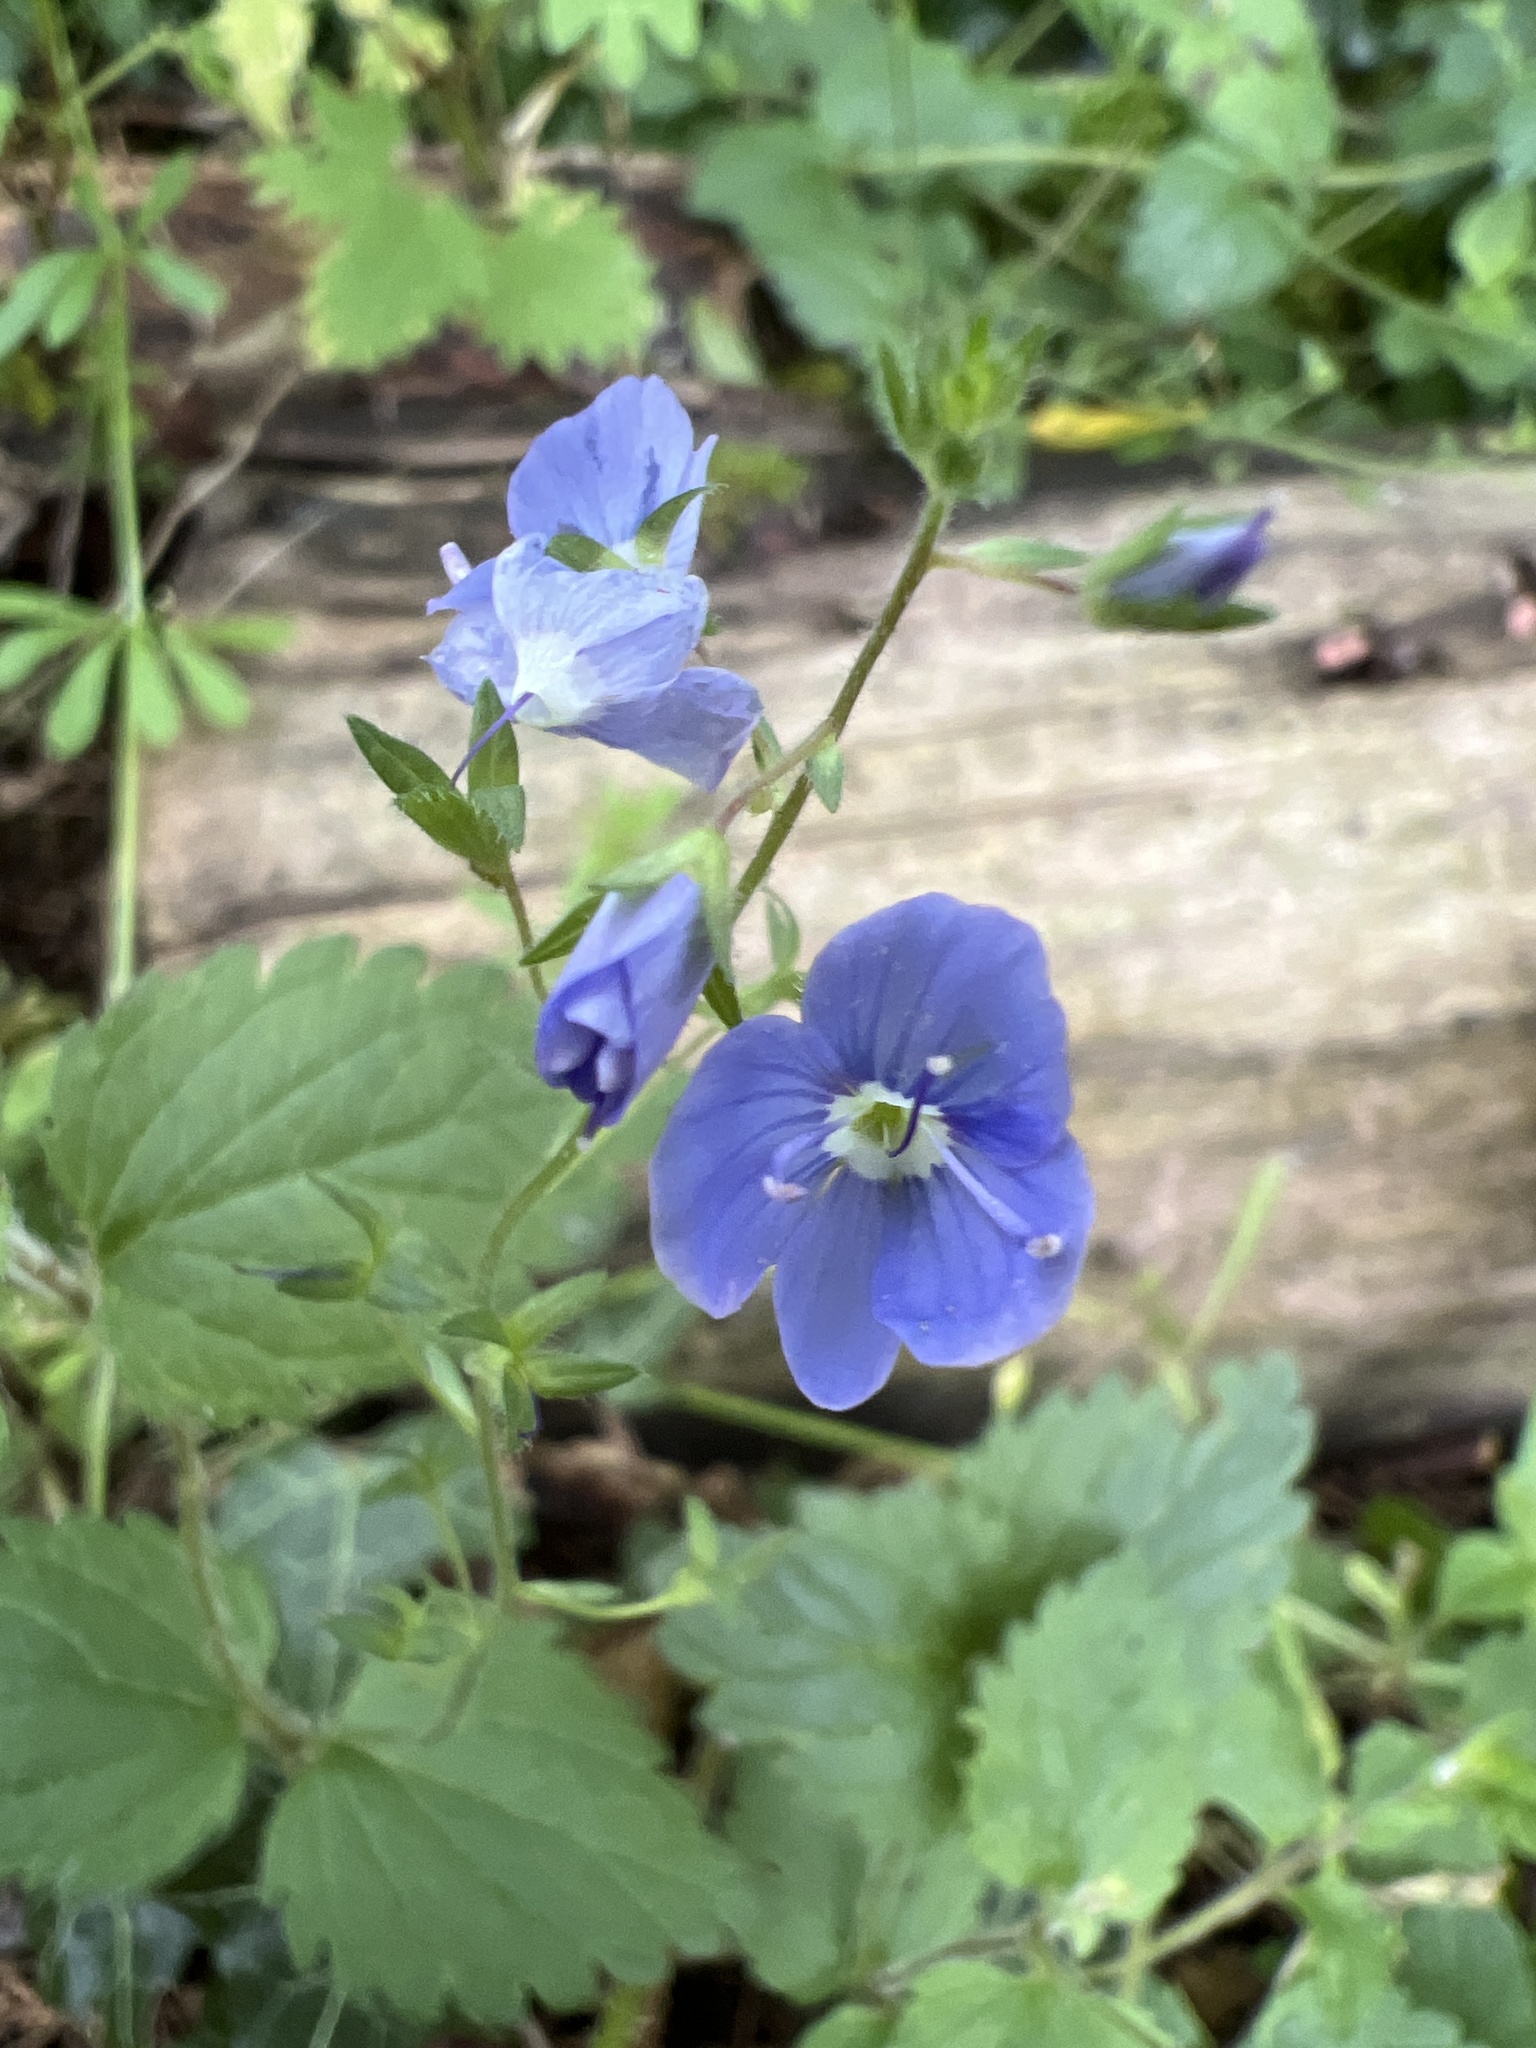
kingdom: Plantae
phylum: Tracheophyta
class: Magnoliopsida
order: Lamiales
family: Plantaginaceae
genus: Veronica
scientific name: Veronica chamaedrys
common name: Germander speedwell
